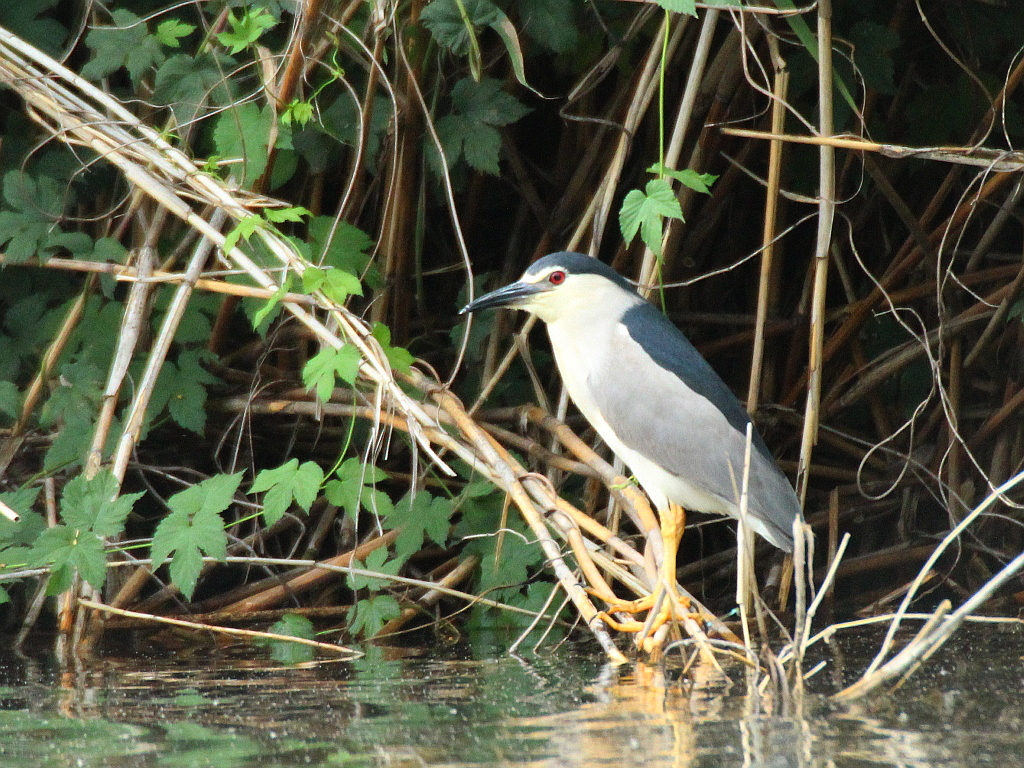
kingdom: Animalia
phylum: Chordata
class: Aves
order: Pelecaniformes
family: Ardeidae
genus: Nycticorax
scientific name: Nycticorax nycticorax
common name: Black-crowned night heron
